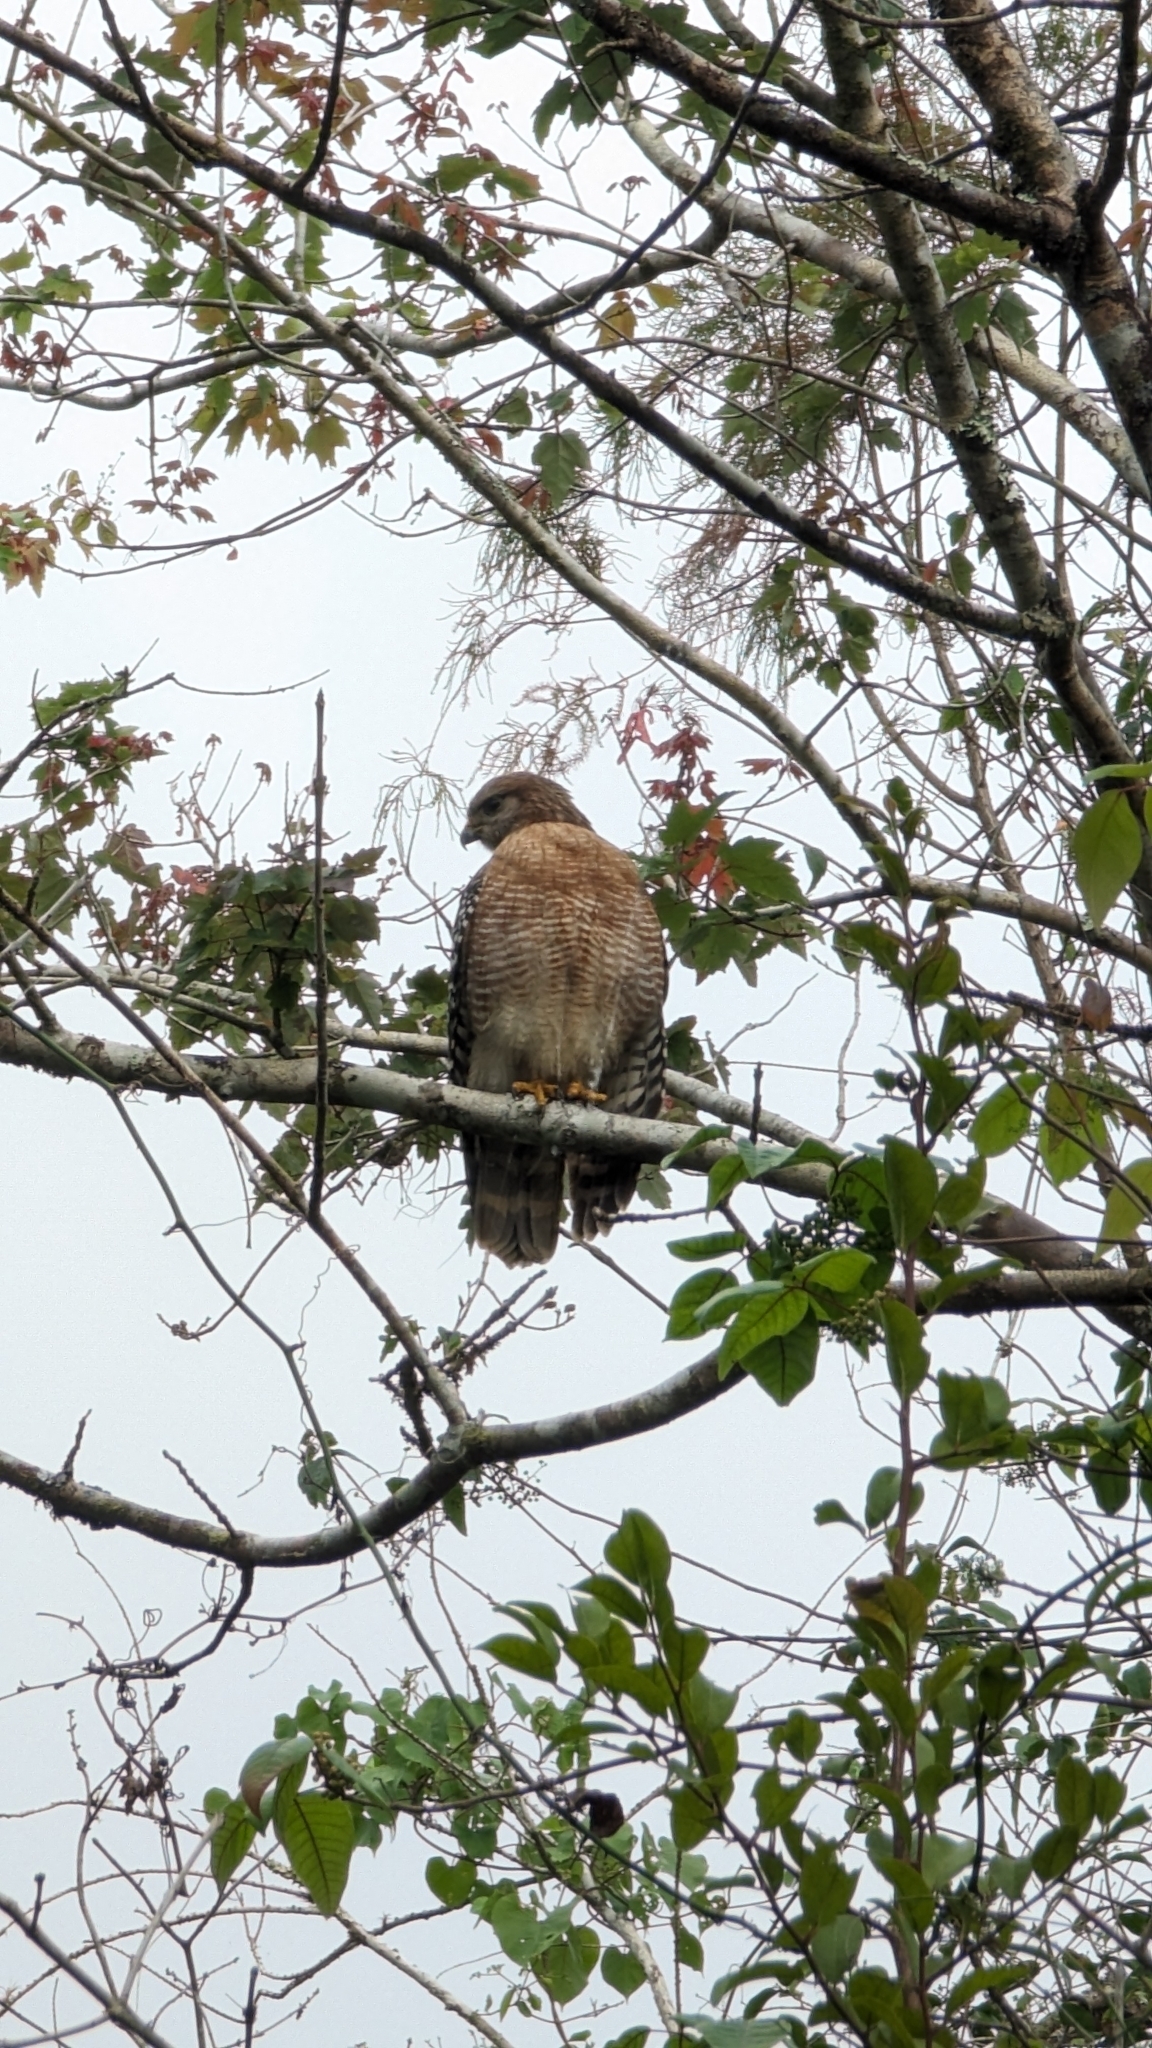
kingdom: Animalia
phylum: Chordata
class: Aves
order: Accipitriformes
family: Accipitridae
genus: Buteo
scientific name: Buteo lineatus
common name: Red-shouldered hawk
